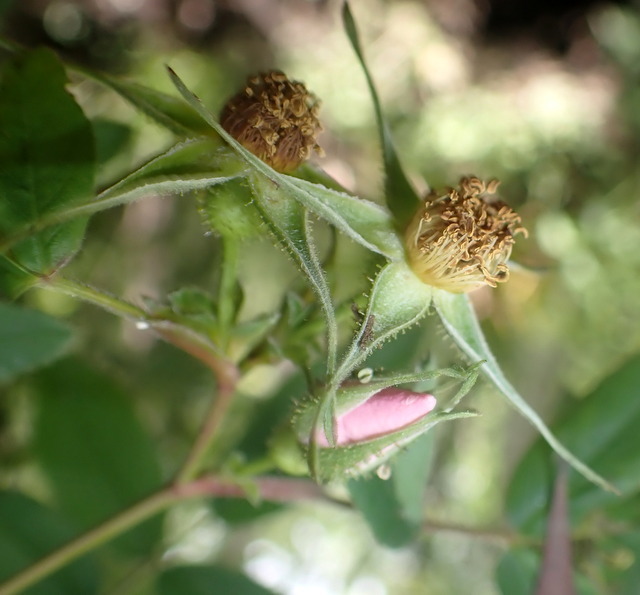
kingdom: Plantae
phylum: Tracheophyta
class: Magnoliopsida
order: Rosales
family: Rosaceae
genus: Rosa
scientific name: Rosa palustris
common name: Swamp rose
